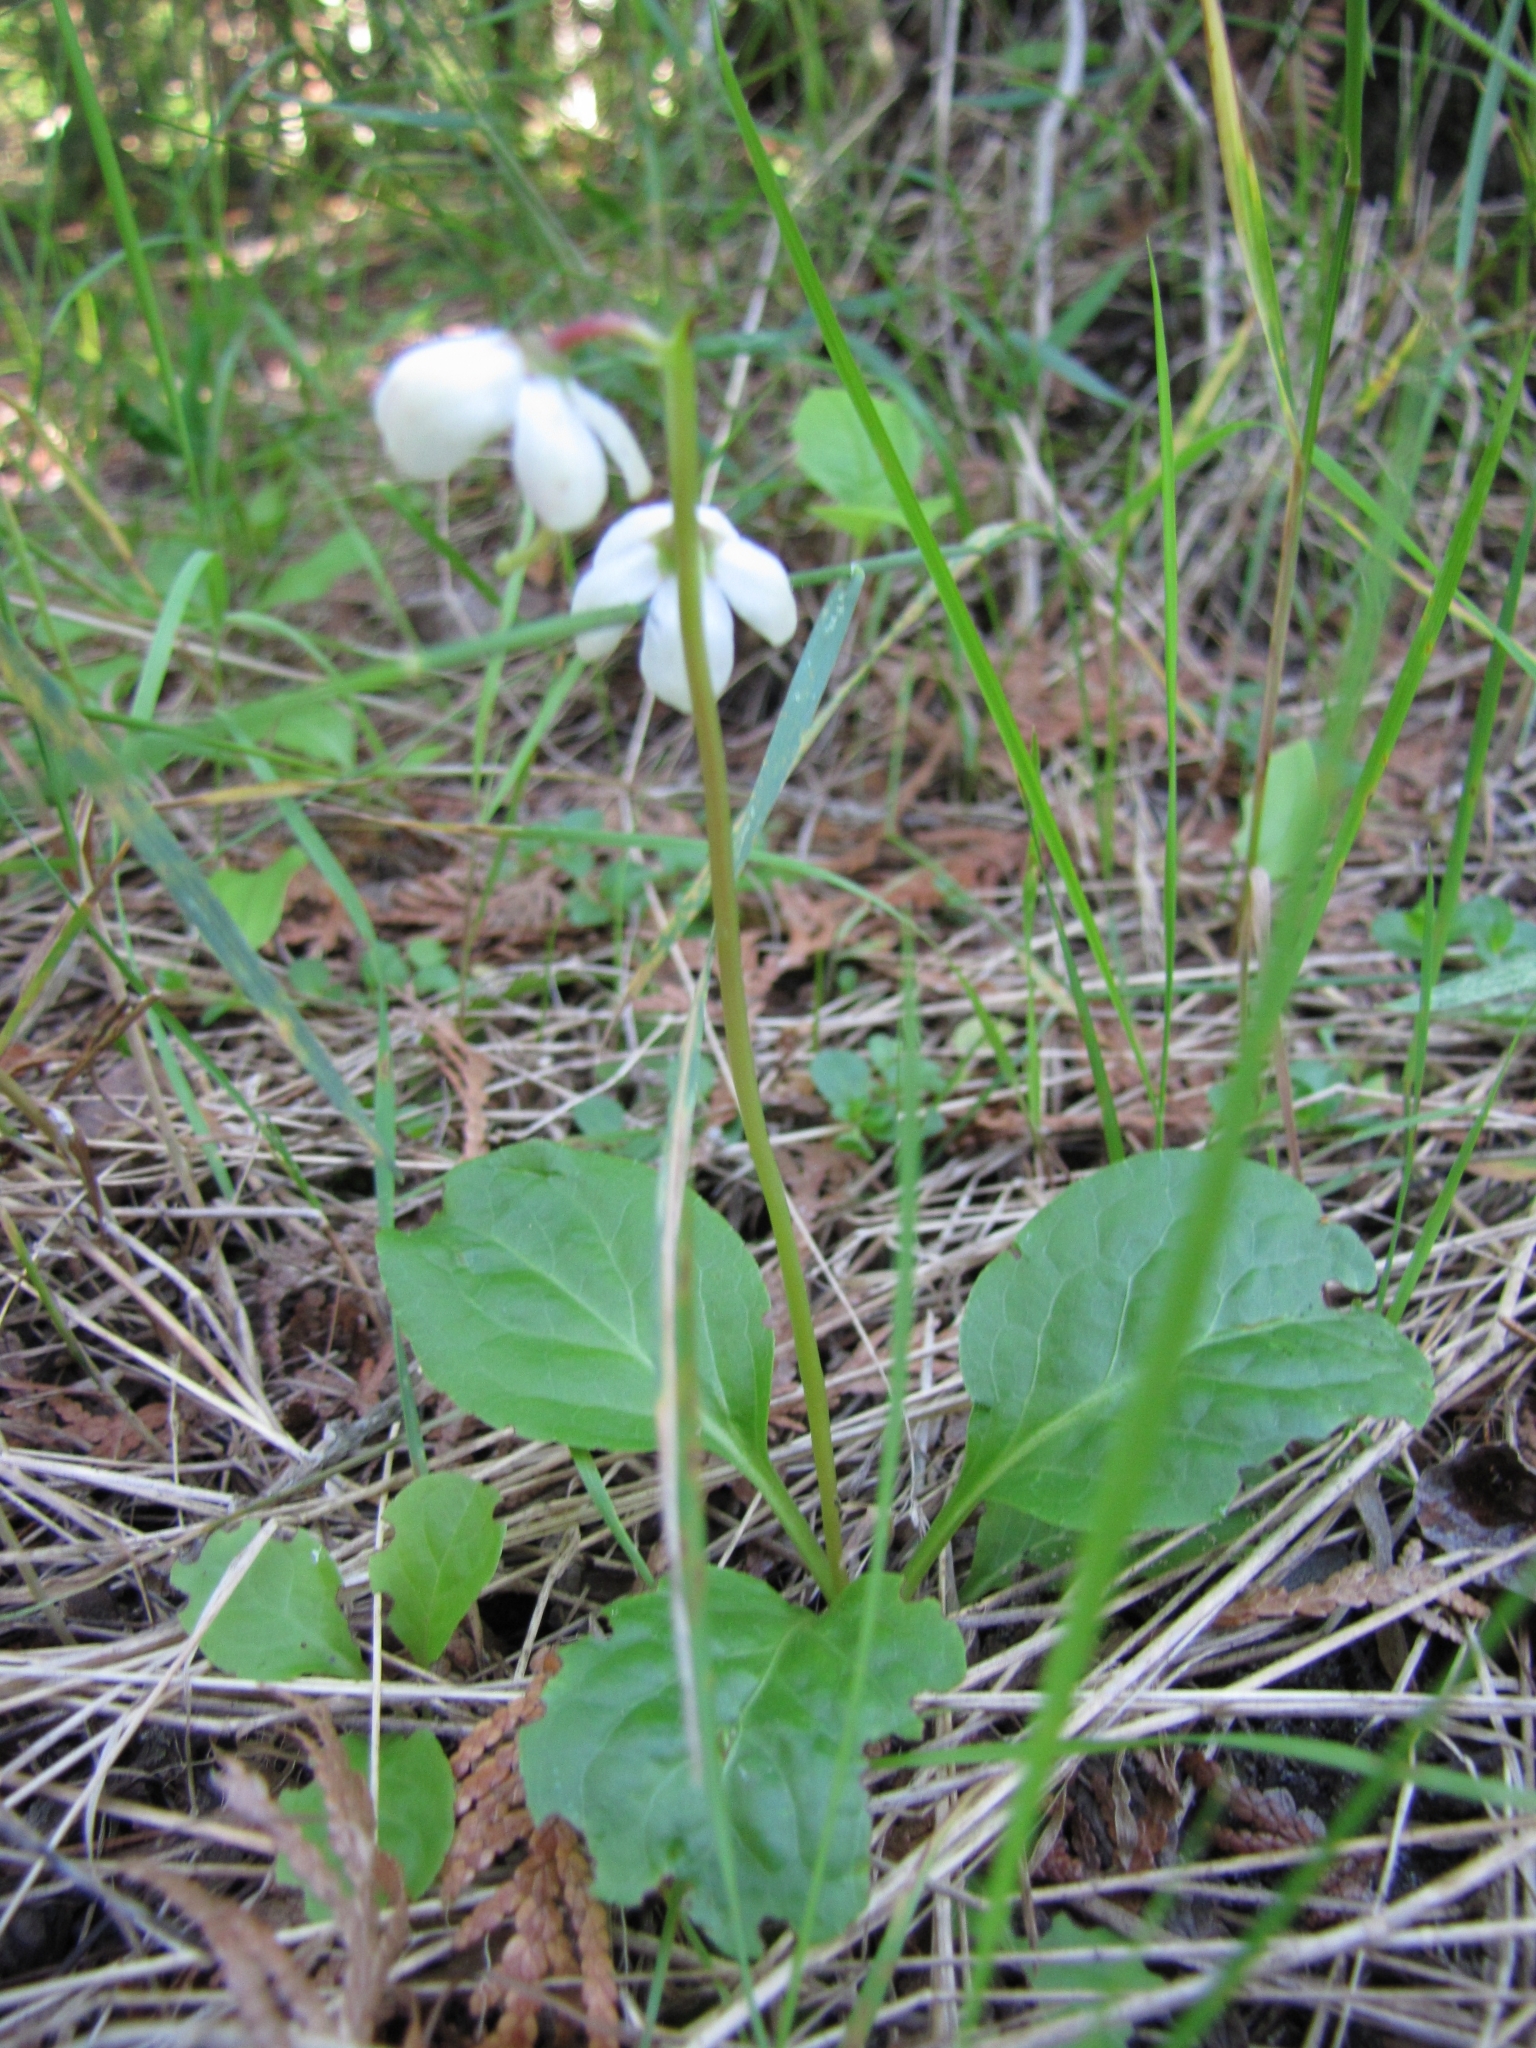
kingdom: Plantae
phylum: Tracheophyta
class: Magnoliopsida
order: Ericales
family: Ericaceae
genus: Pyrola
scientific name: Pyrola elliptica
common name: Shinleaf
